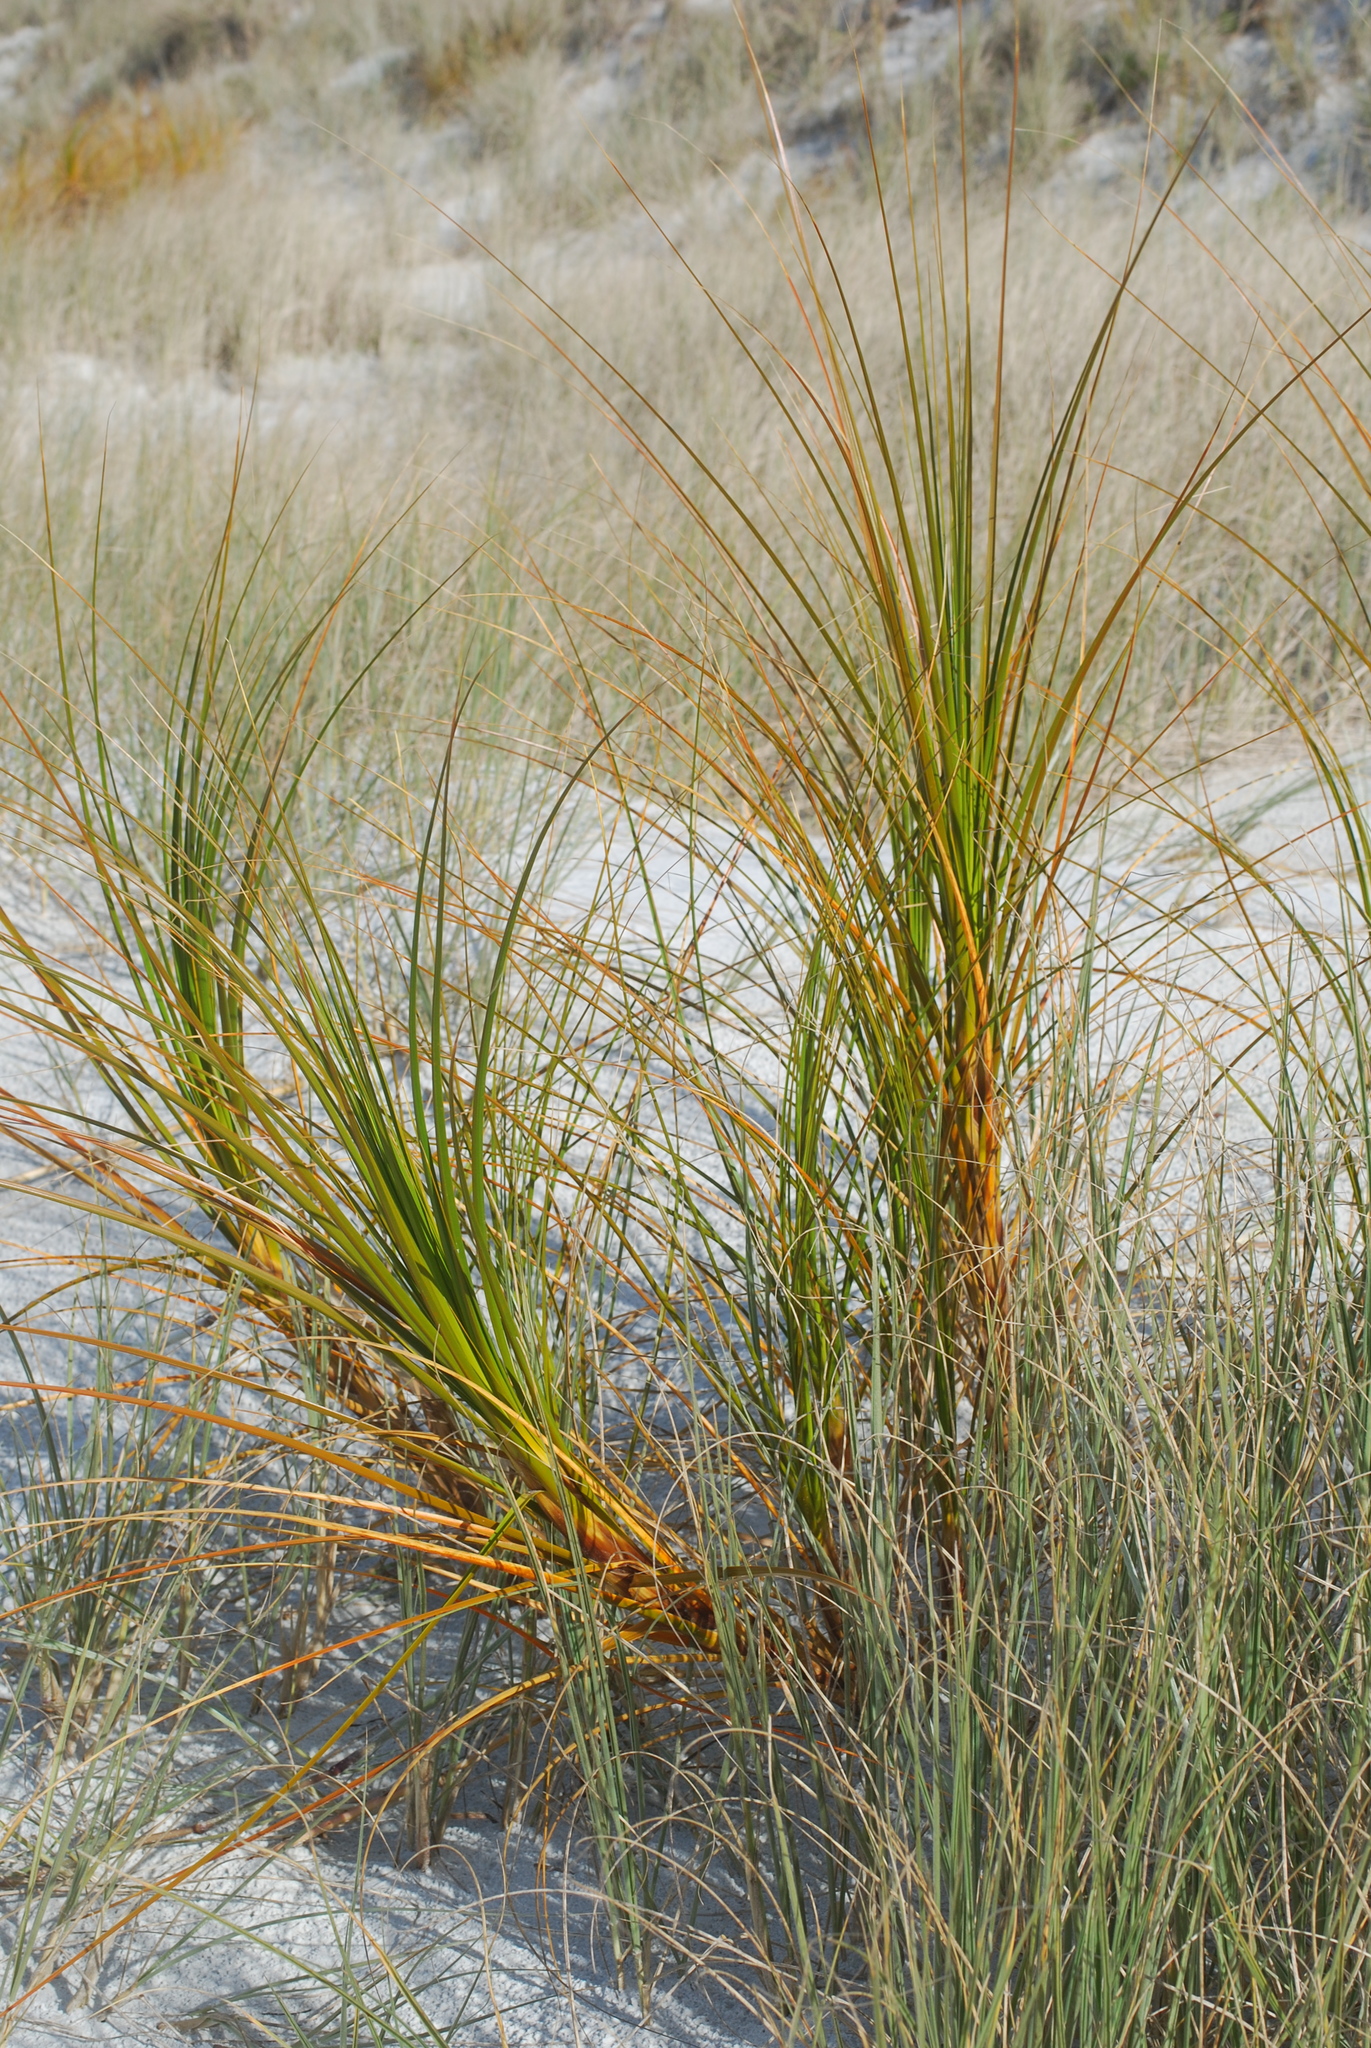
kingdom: Plantae
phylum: Tracheophyta
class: Liliopsida
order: Poales
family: Cyperaceae
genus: Ficinia
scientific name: Ficinia spiralis
